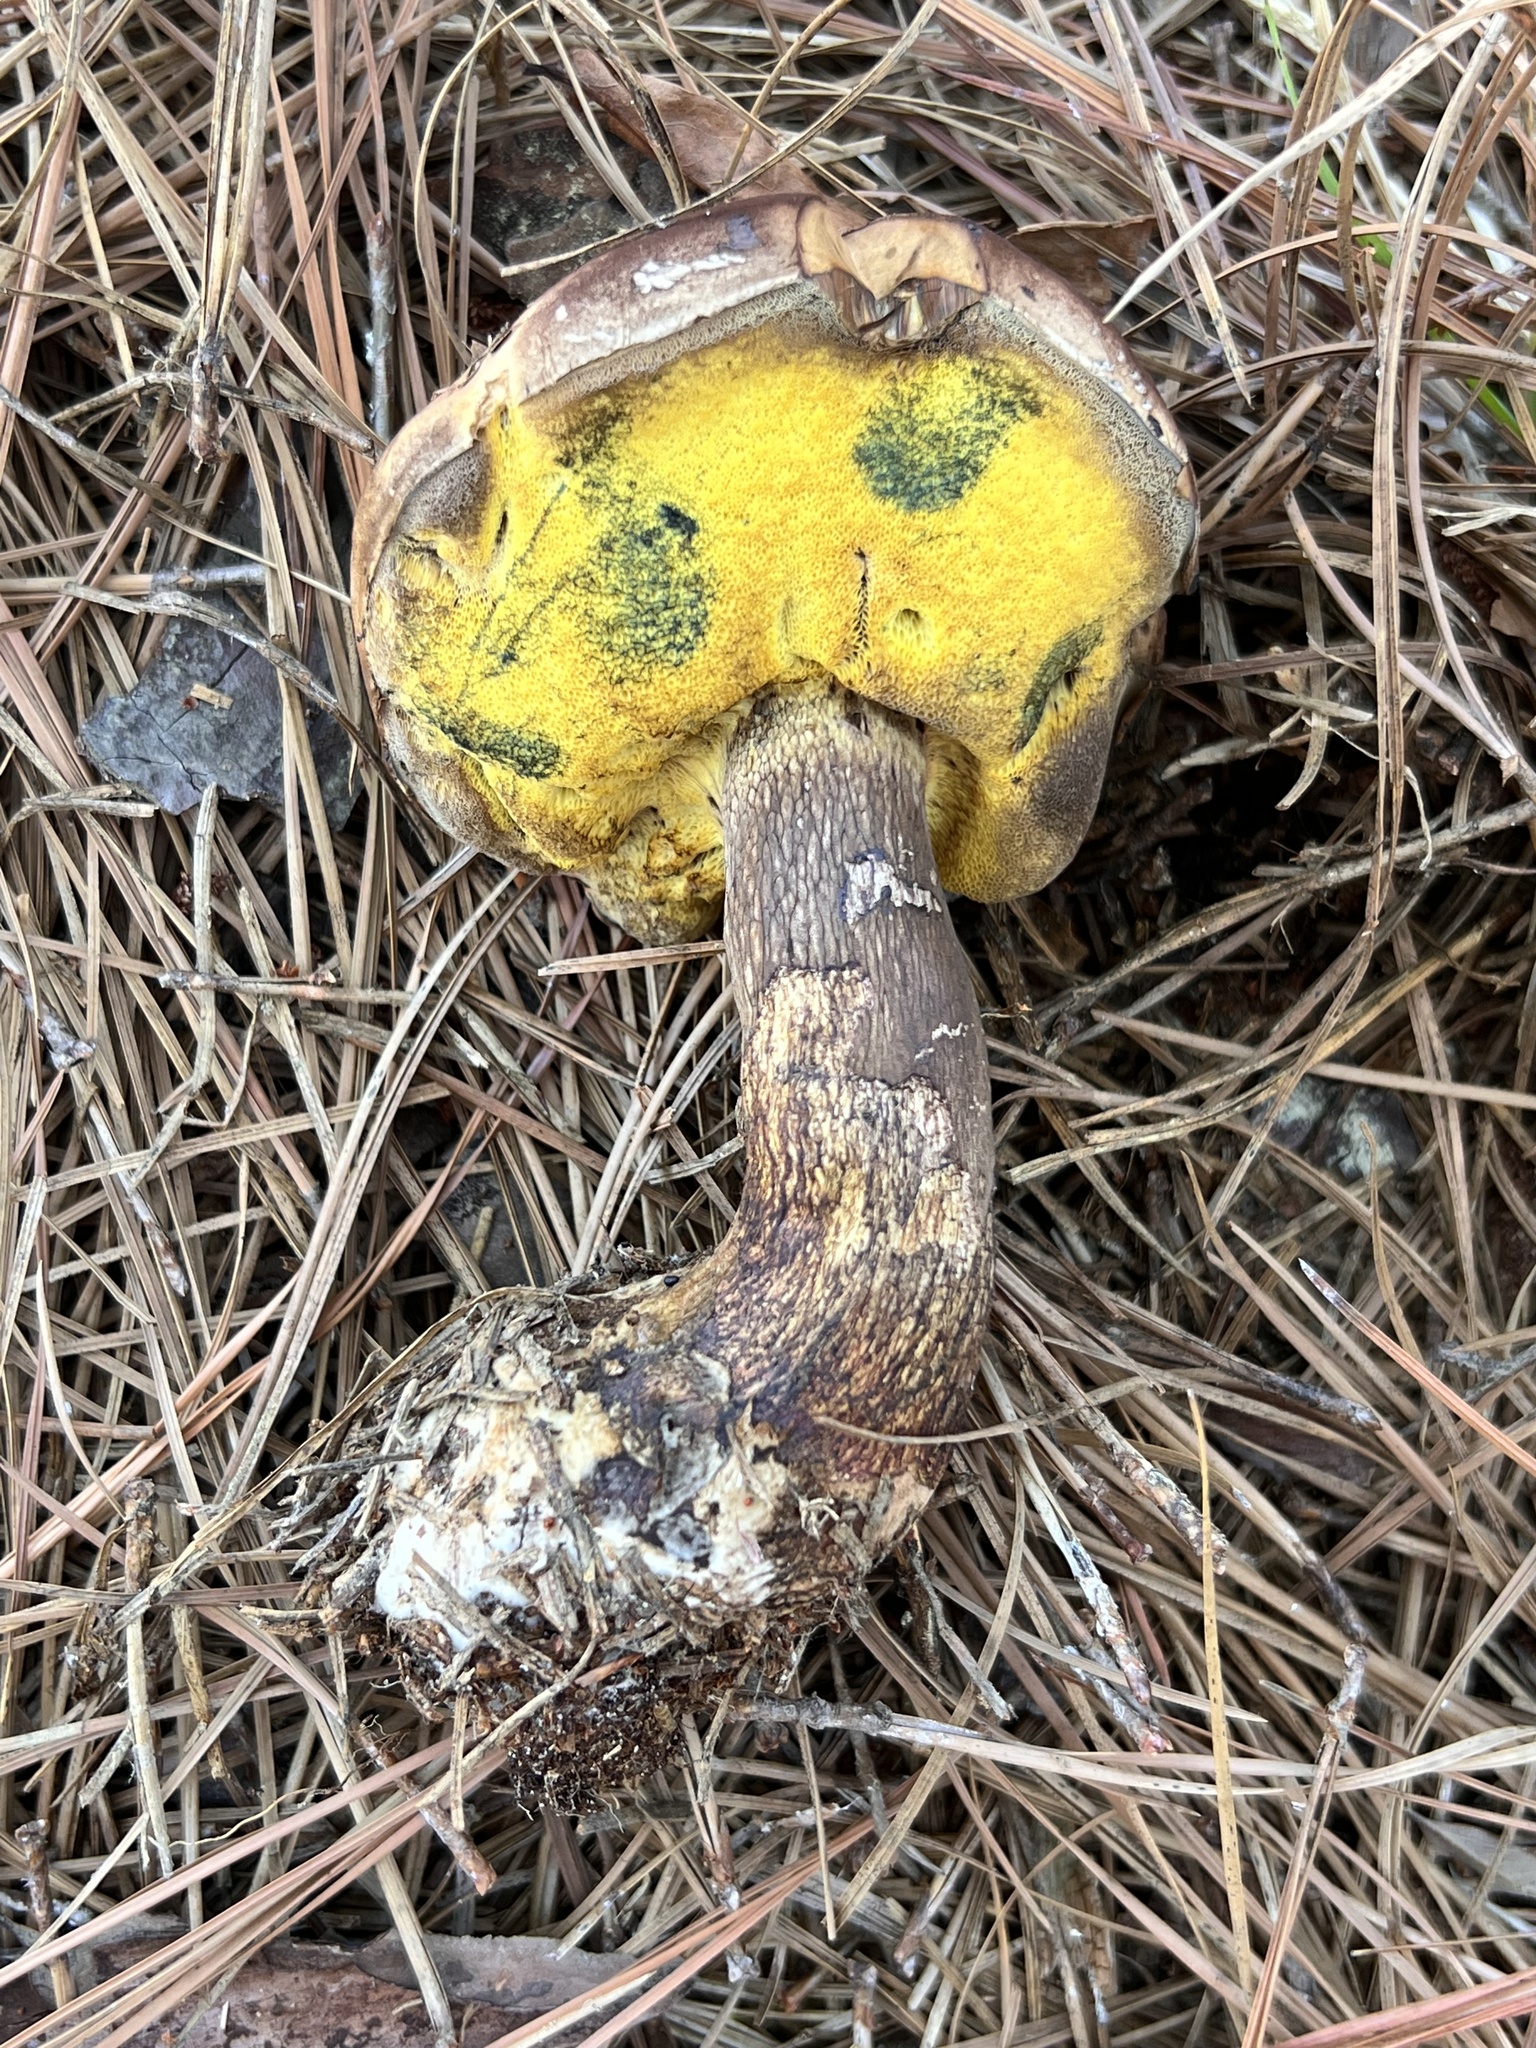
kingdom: Fungi
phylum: Basidiomycota
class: Agaricomycetes
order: Boletales
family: Boletaceae
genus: Boletus
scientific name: Boletus
